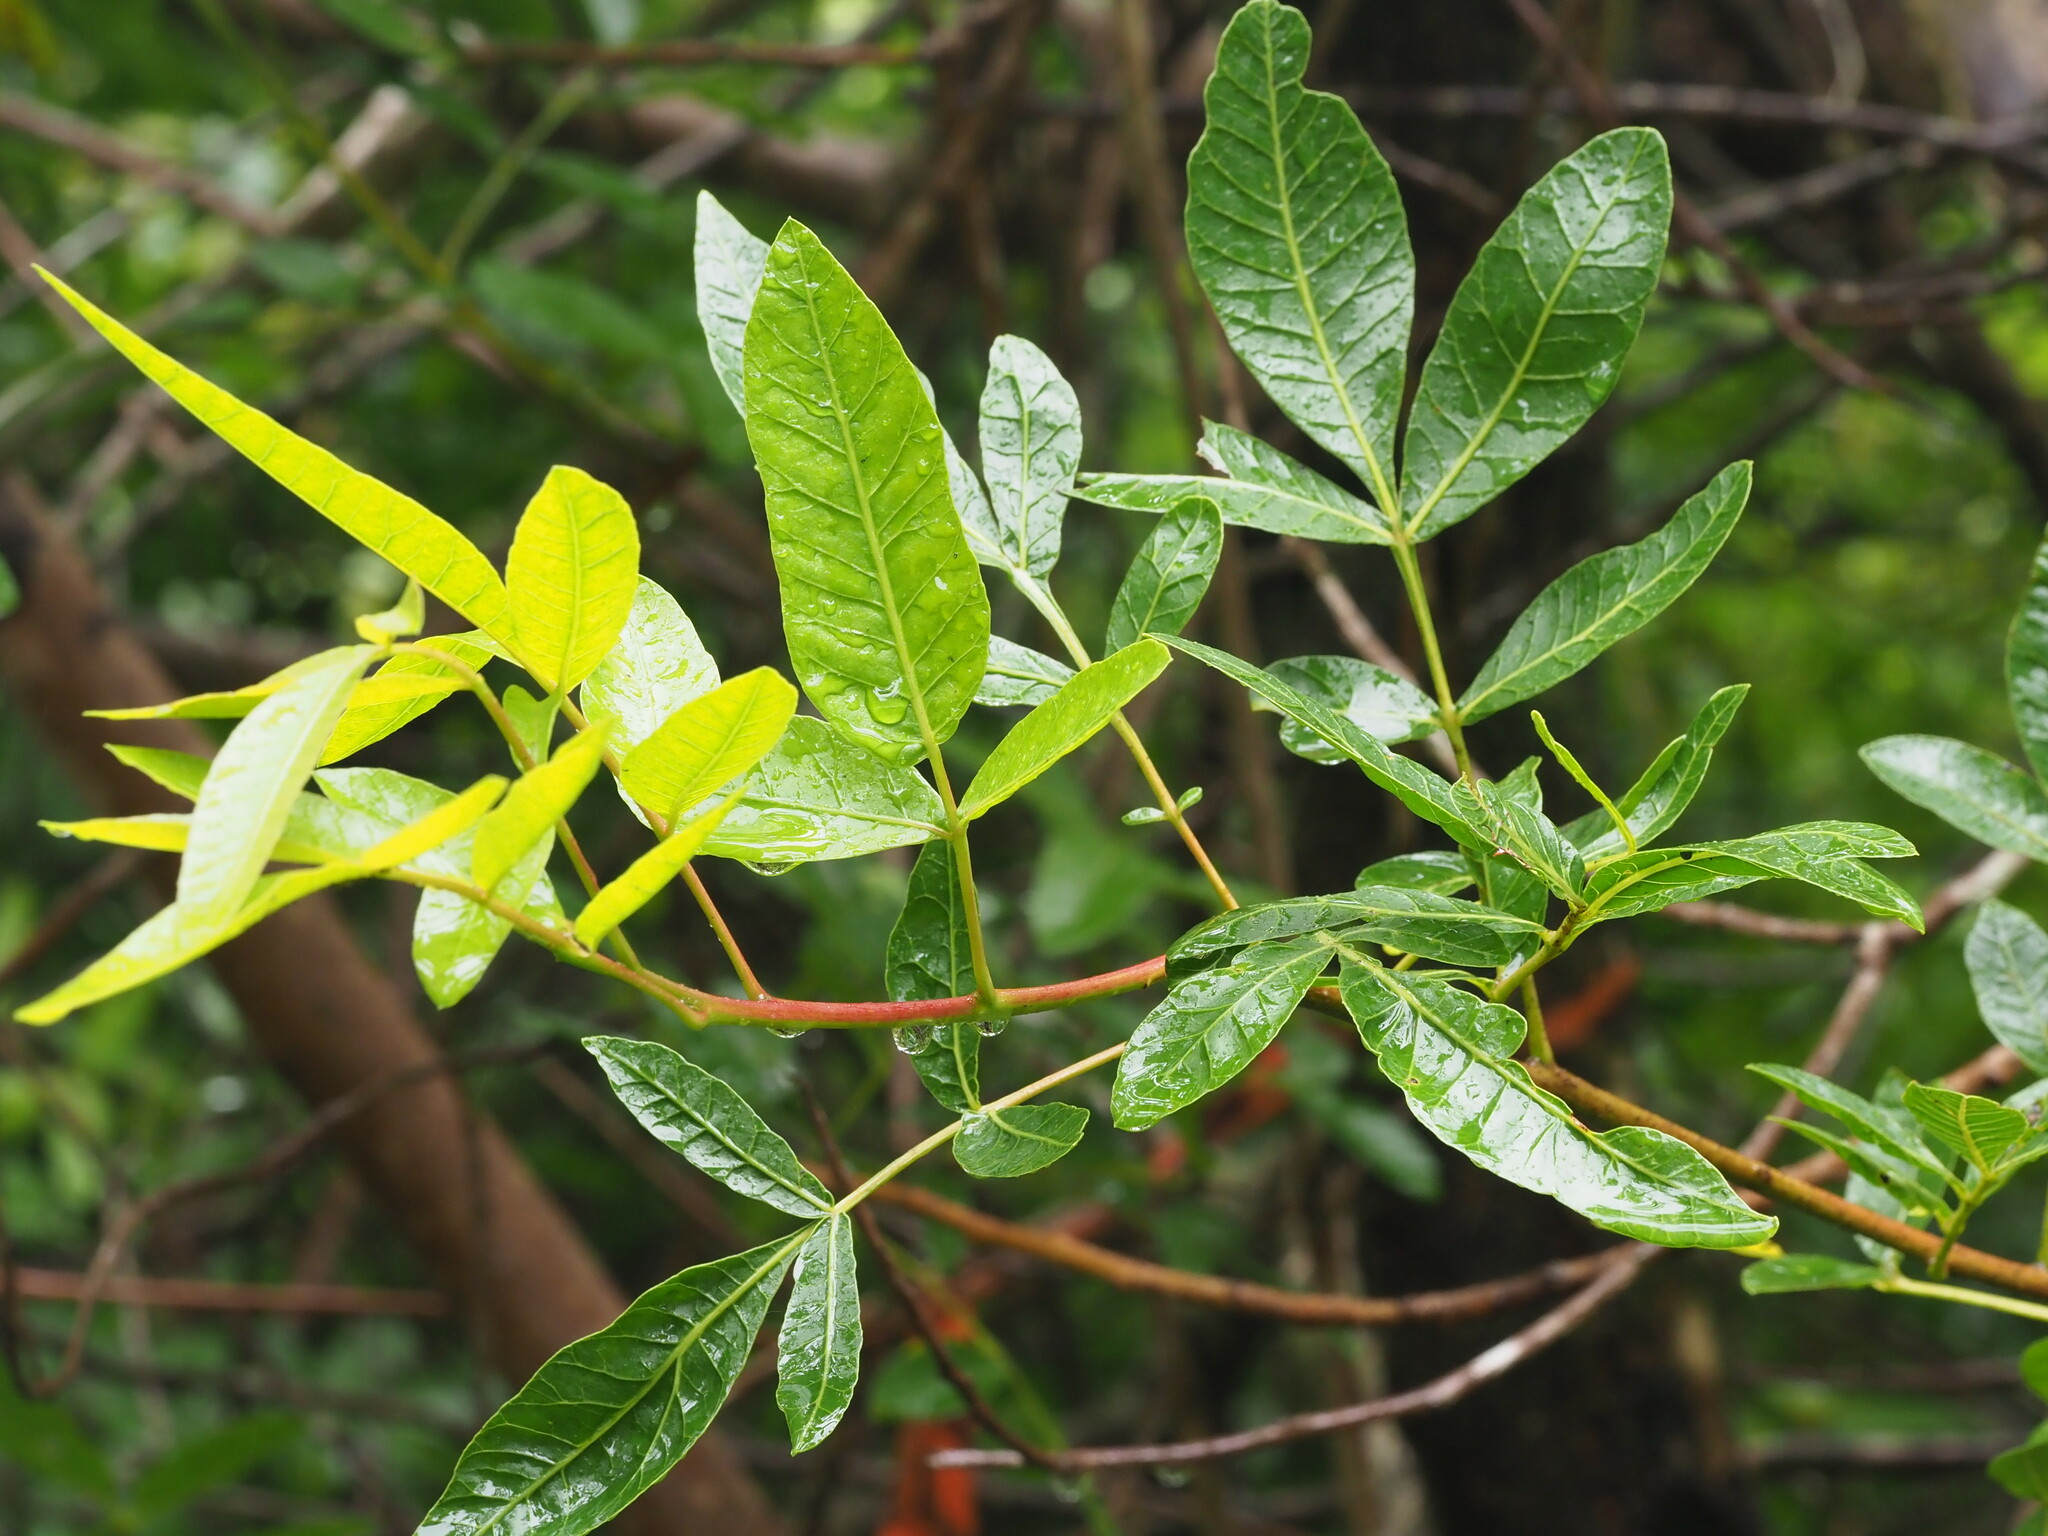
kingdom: Plantae
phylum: Tracheophyta
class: Magnoliopsida
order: Sapindales
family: Anacardiaceae
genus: Schinus
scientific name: Schinus terebinthifolia
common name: Brazilian peppertree
